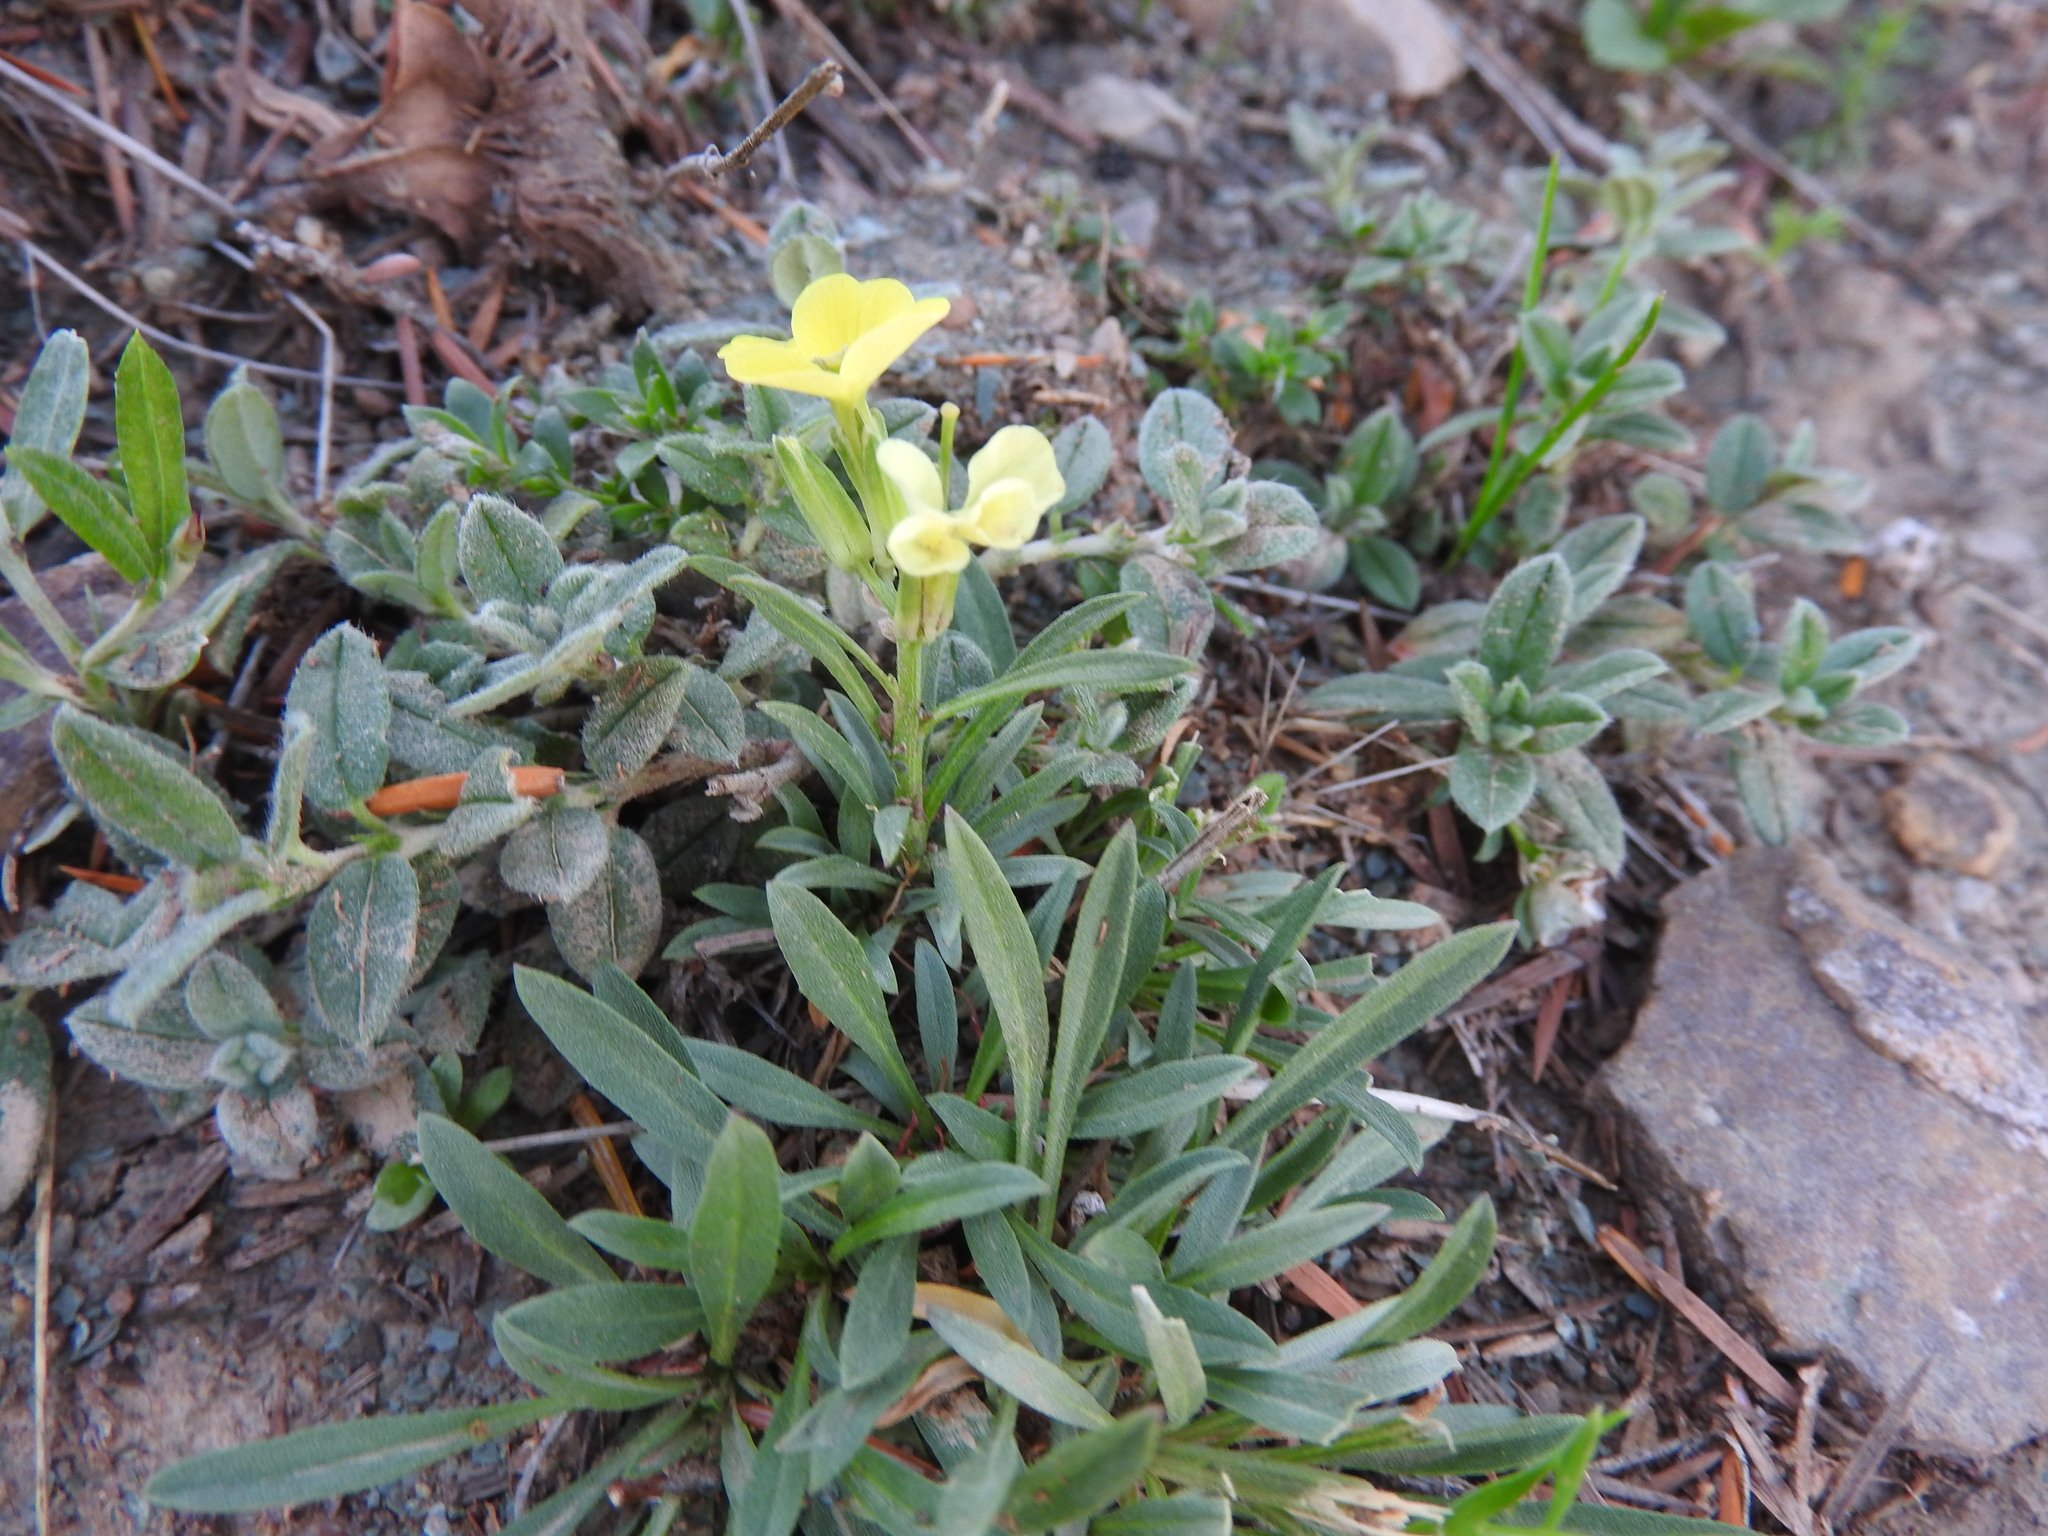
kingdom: Plantae
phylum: Tracheophyta
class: Magnoliopsida
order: Brassicales
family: Brassicaceae
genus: Erysimum
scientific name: Erysimum grandiflorum
